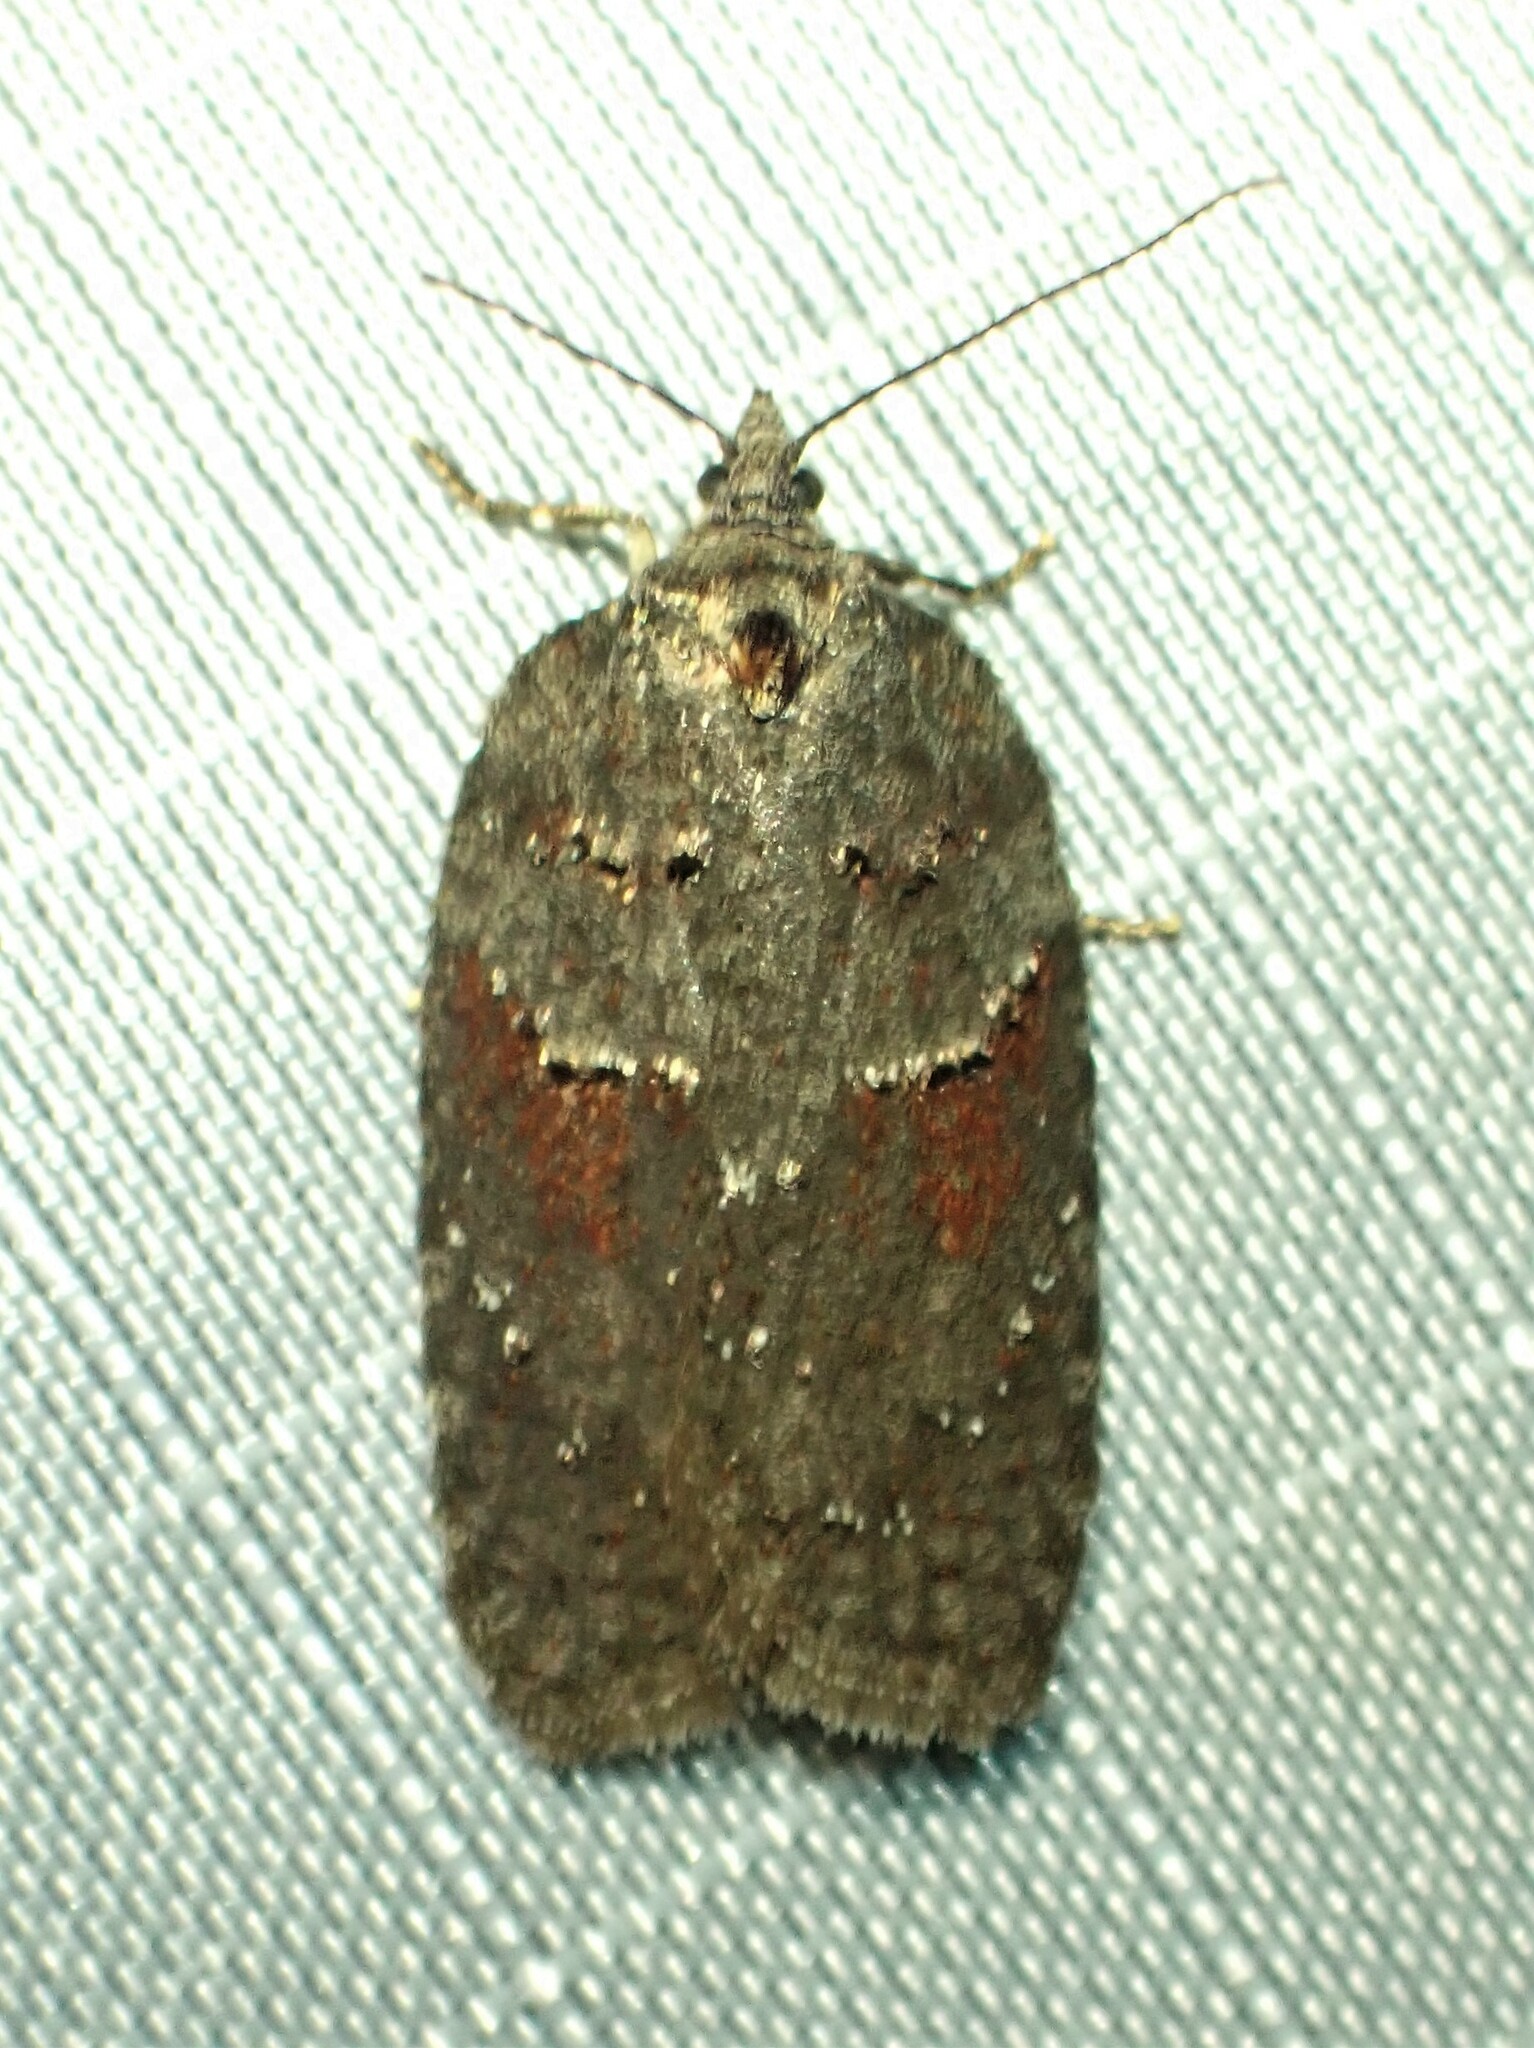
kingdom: Animalia
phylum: Arthropoda
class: Insecta
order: Lepidoptera
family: Tortricidae
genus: Acleris
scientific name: Acleris caliginosana
